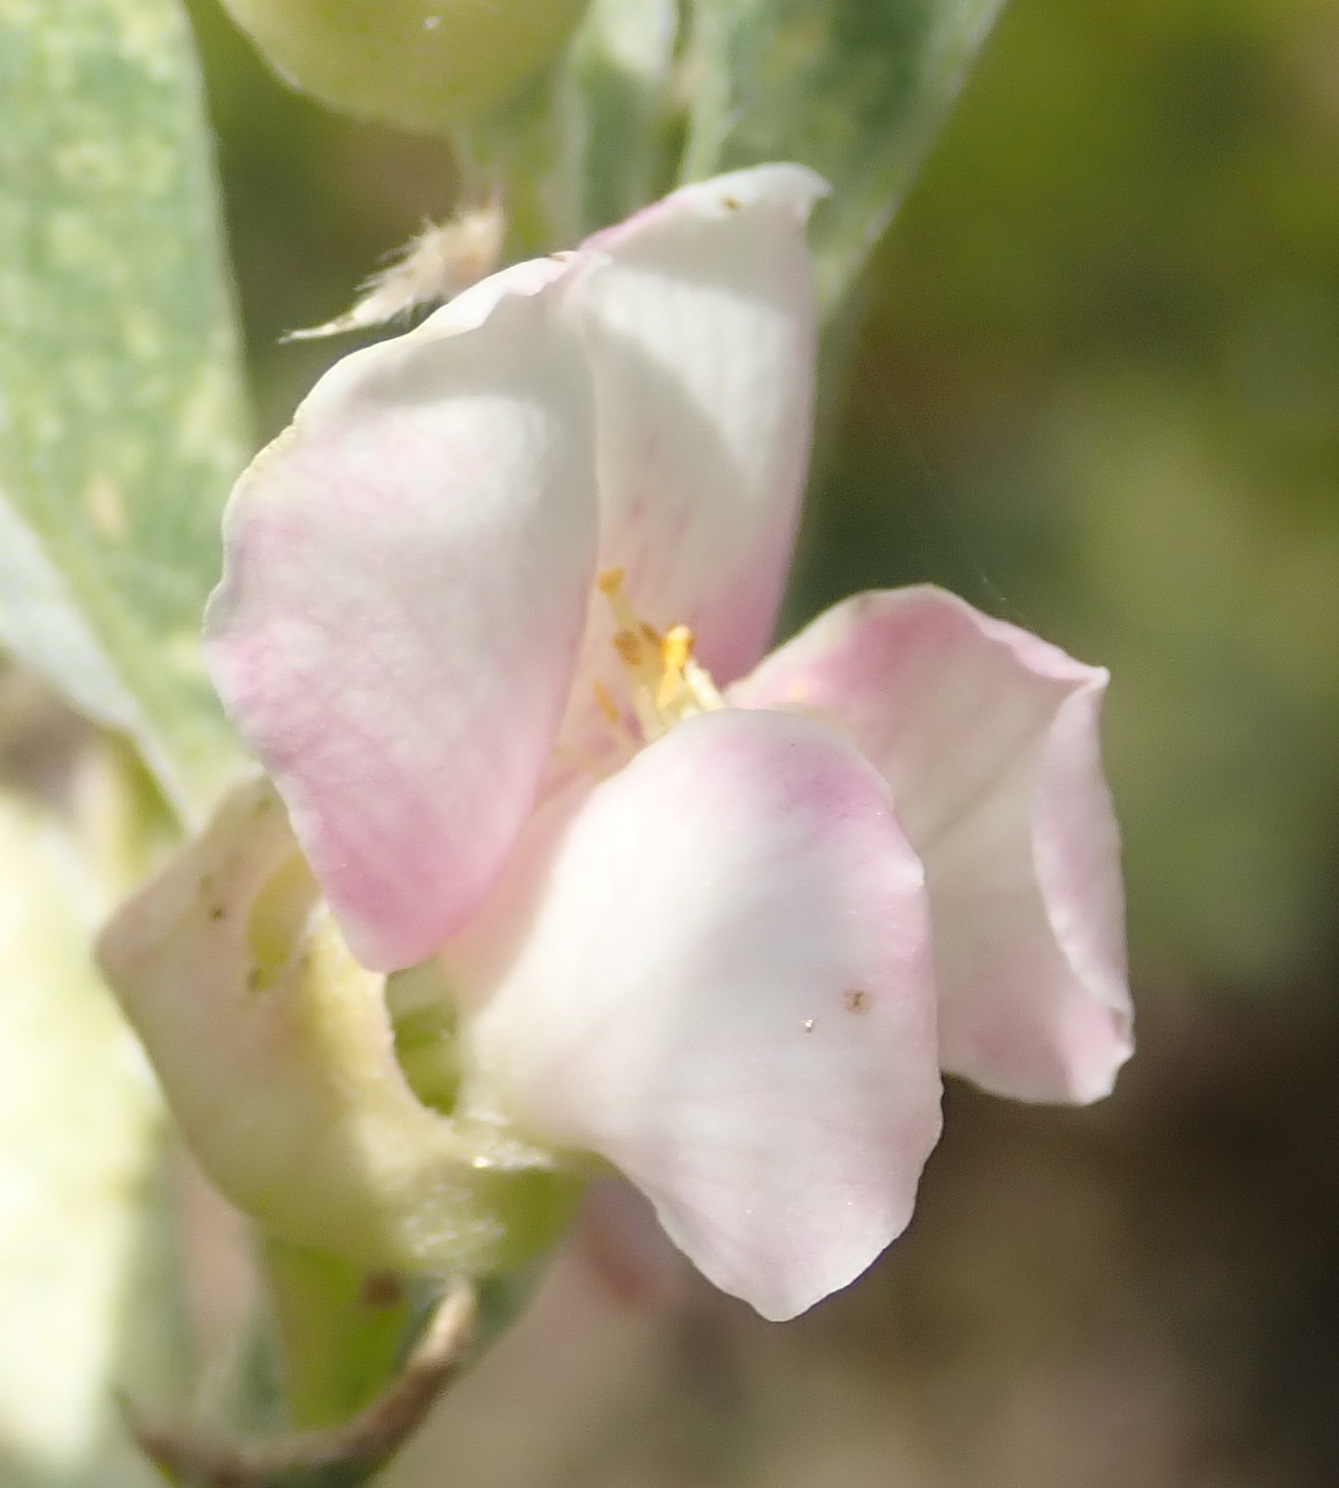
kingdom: Plantae
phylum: Tracheophyta
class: Magnoliopsida
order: Fabales
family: Fabaceae
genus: Podalyria
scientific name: Podalyria myrtillifolia
